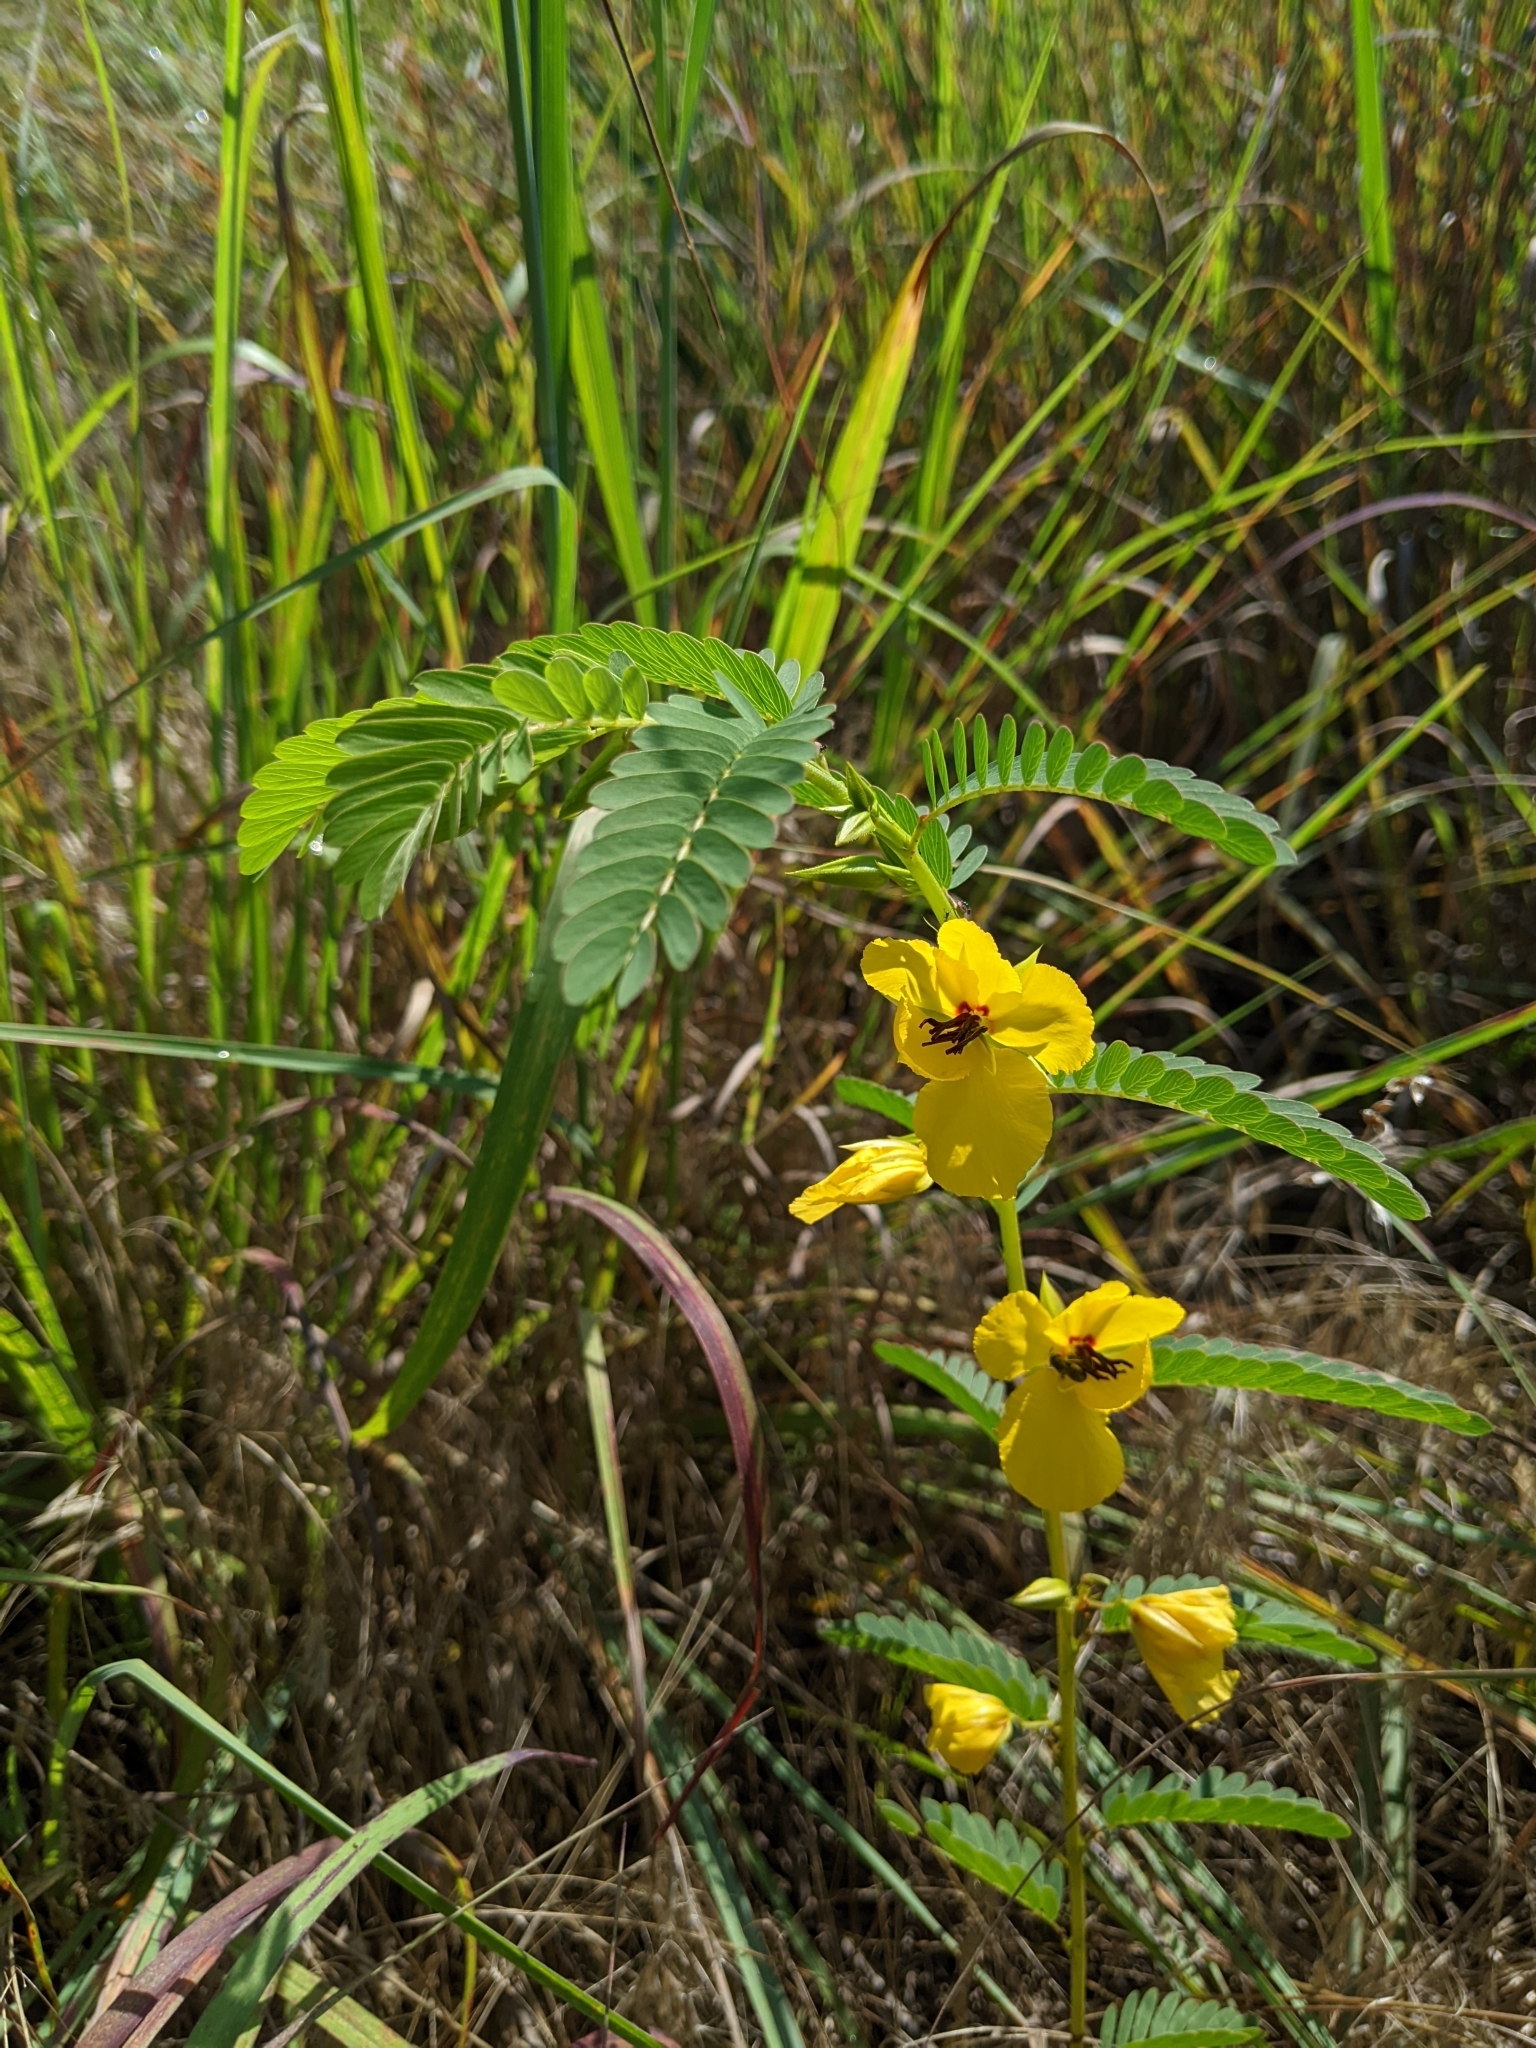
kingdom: Plantae
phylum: Tracheophyta
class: Magnoliopsida
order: Fabales
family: Fabaceae
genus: Chamaecrista
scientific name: Chamaecrista fasciculata
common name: Golden cassia
